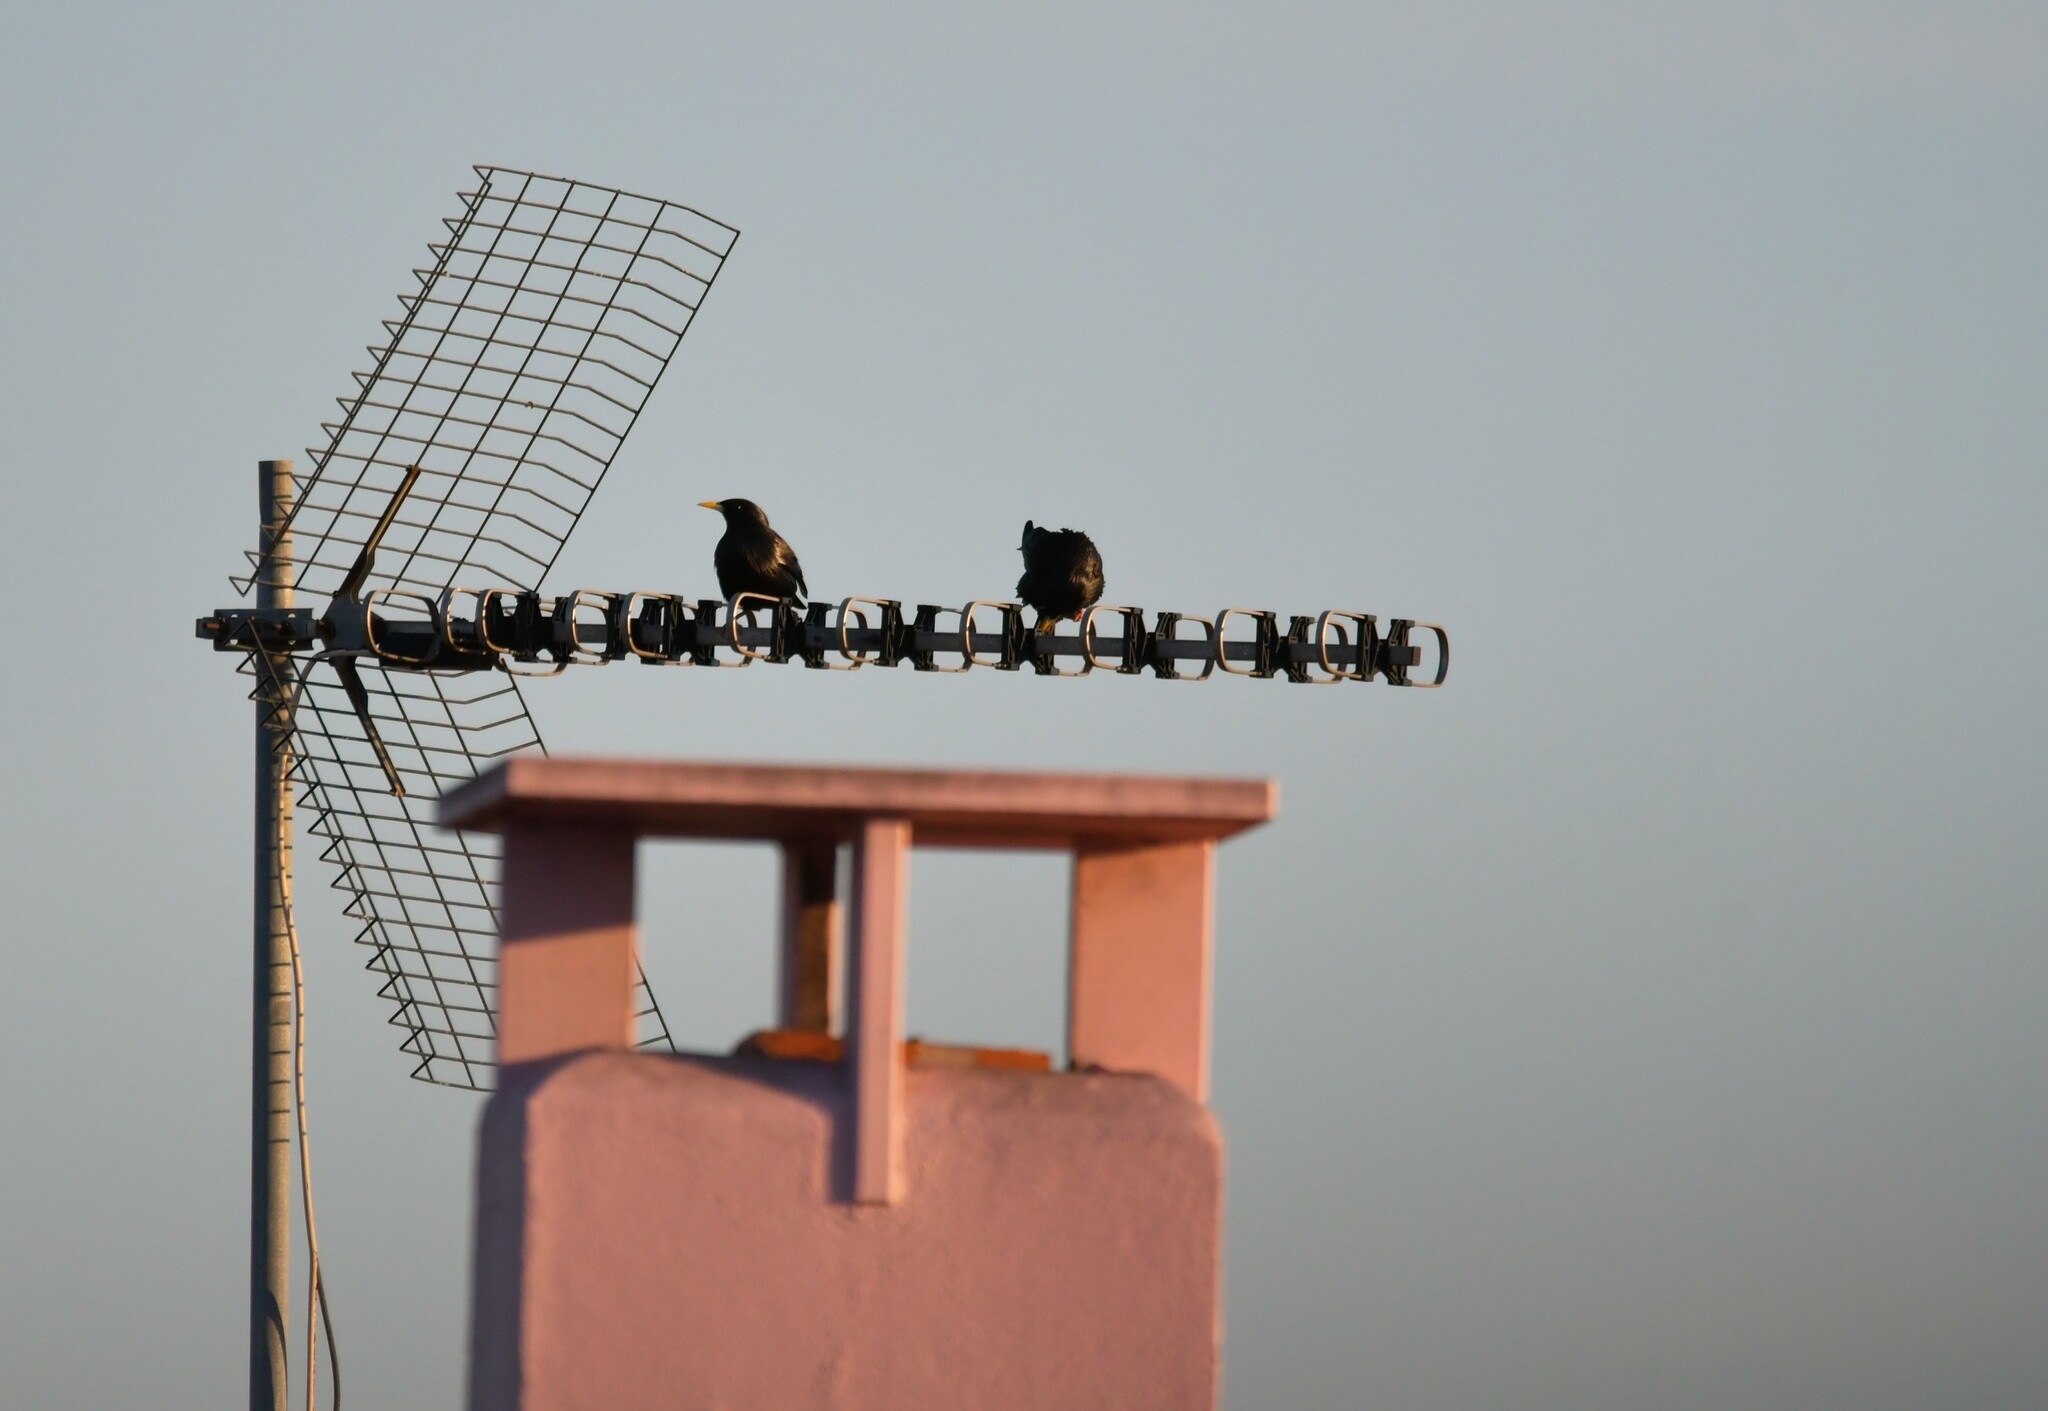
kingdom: Animalia
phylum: Chordata
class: Aves
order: Passeriformes
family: Sturnidae
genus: Sturnus
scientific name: Sturnus unicolor
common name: Spotless starling
